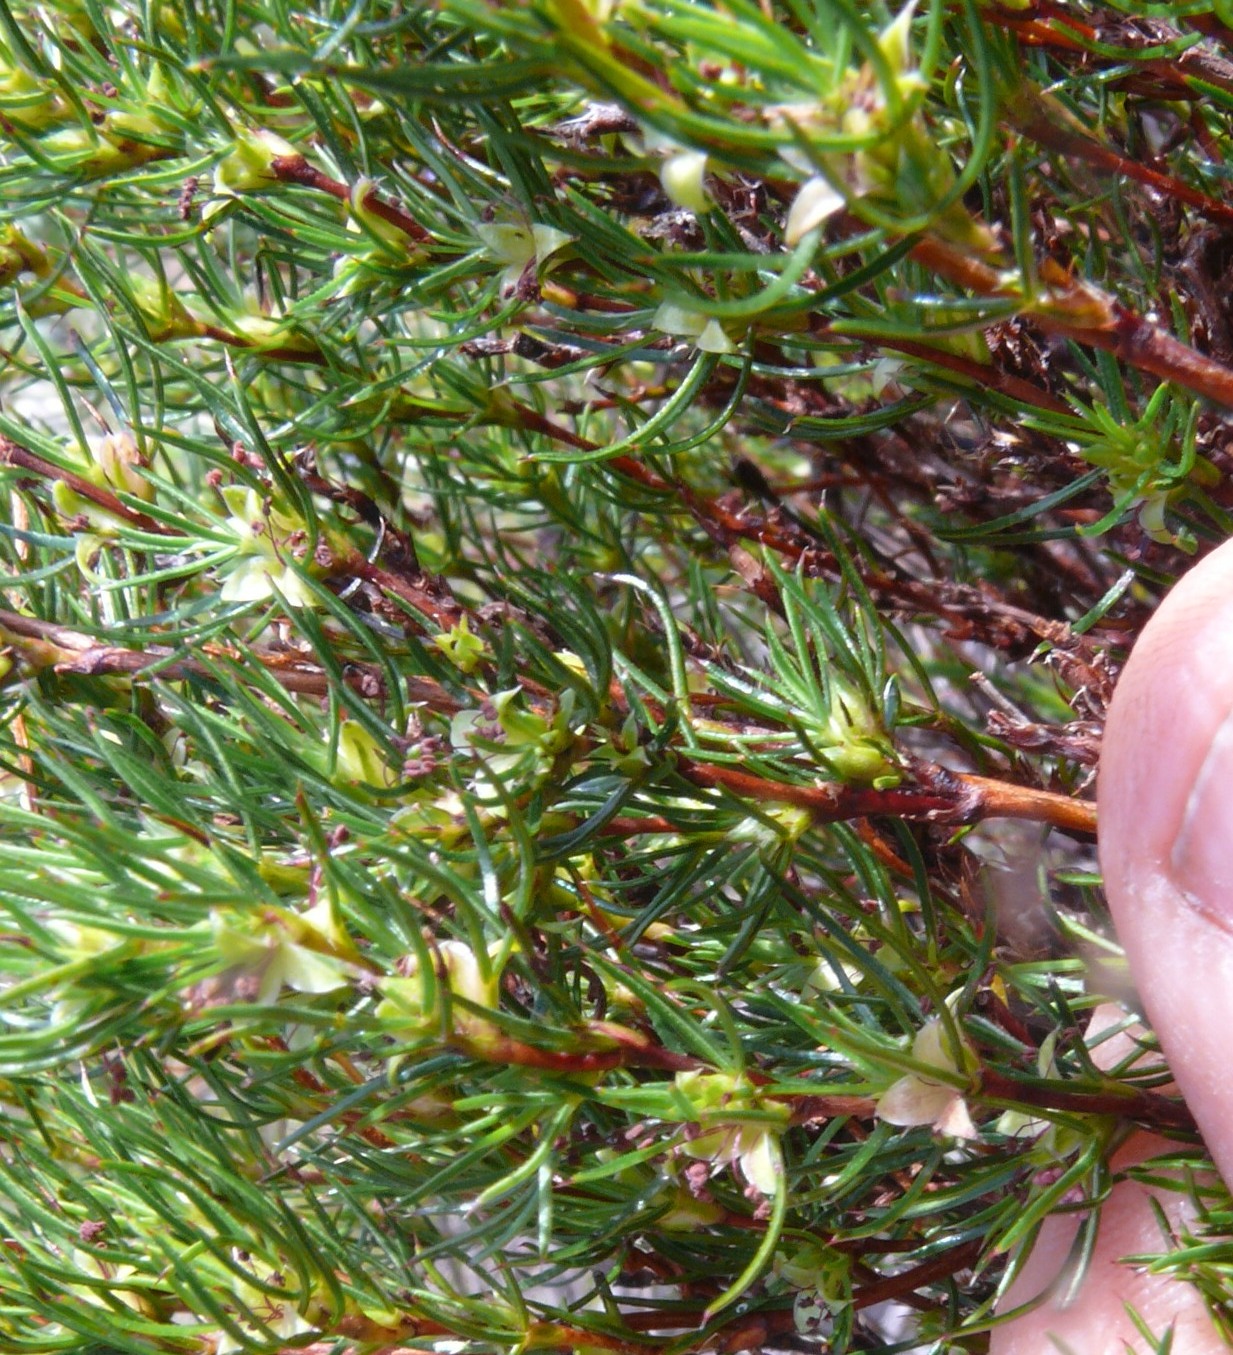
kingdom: Plantae
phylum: Tracheophyta
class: Magnoliopsida
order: Rosales
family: Rosaceae
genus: Cliffortia
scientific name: Cliffortia filifolia
